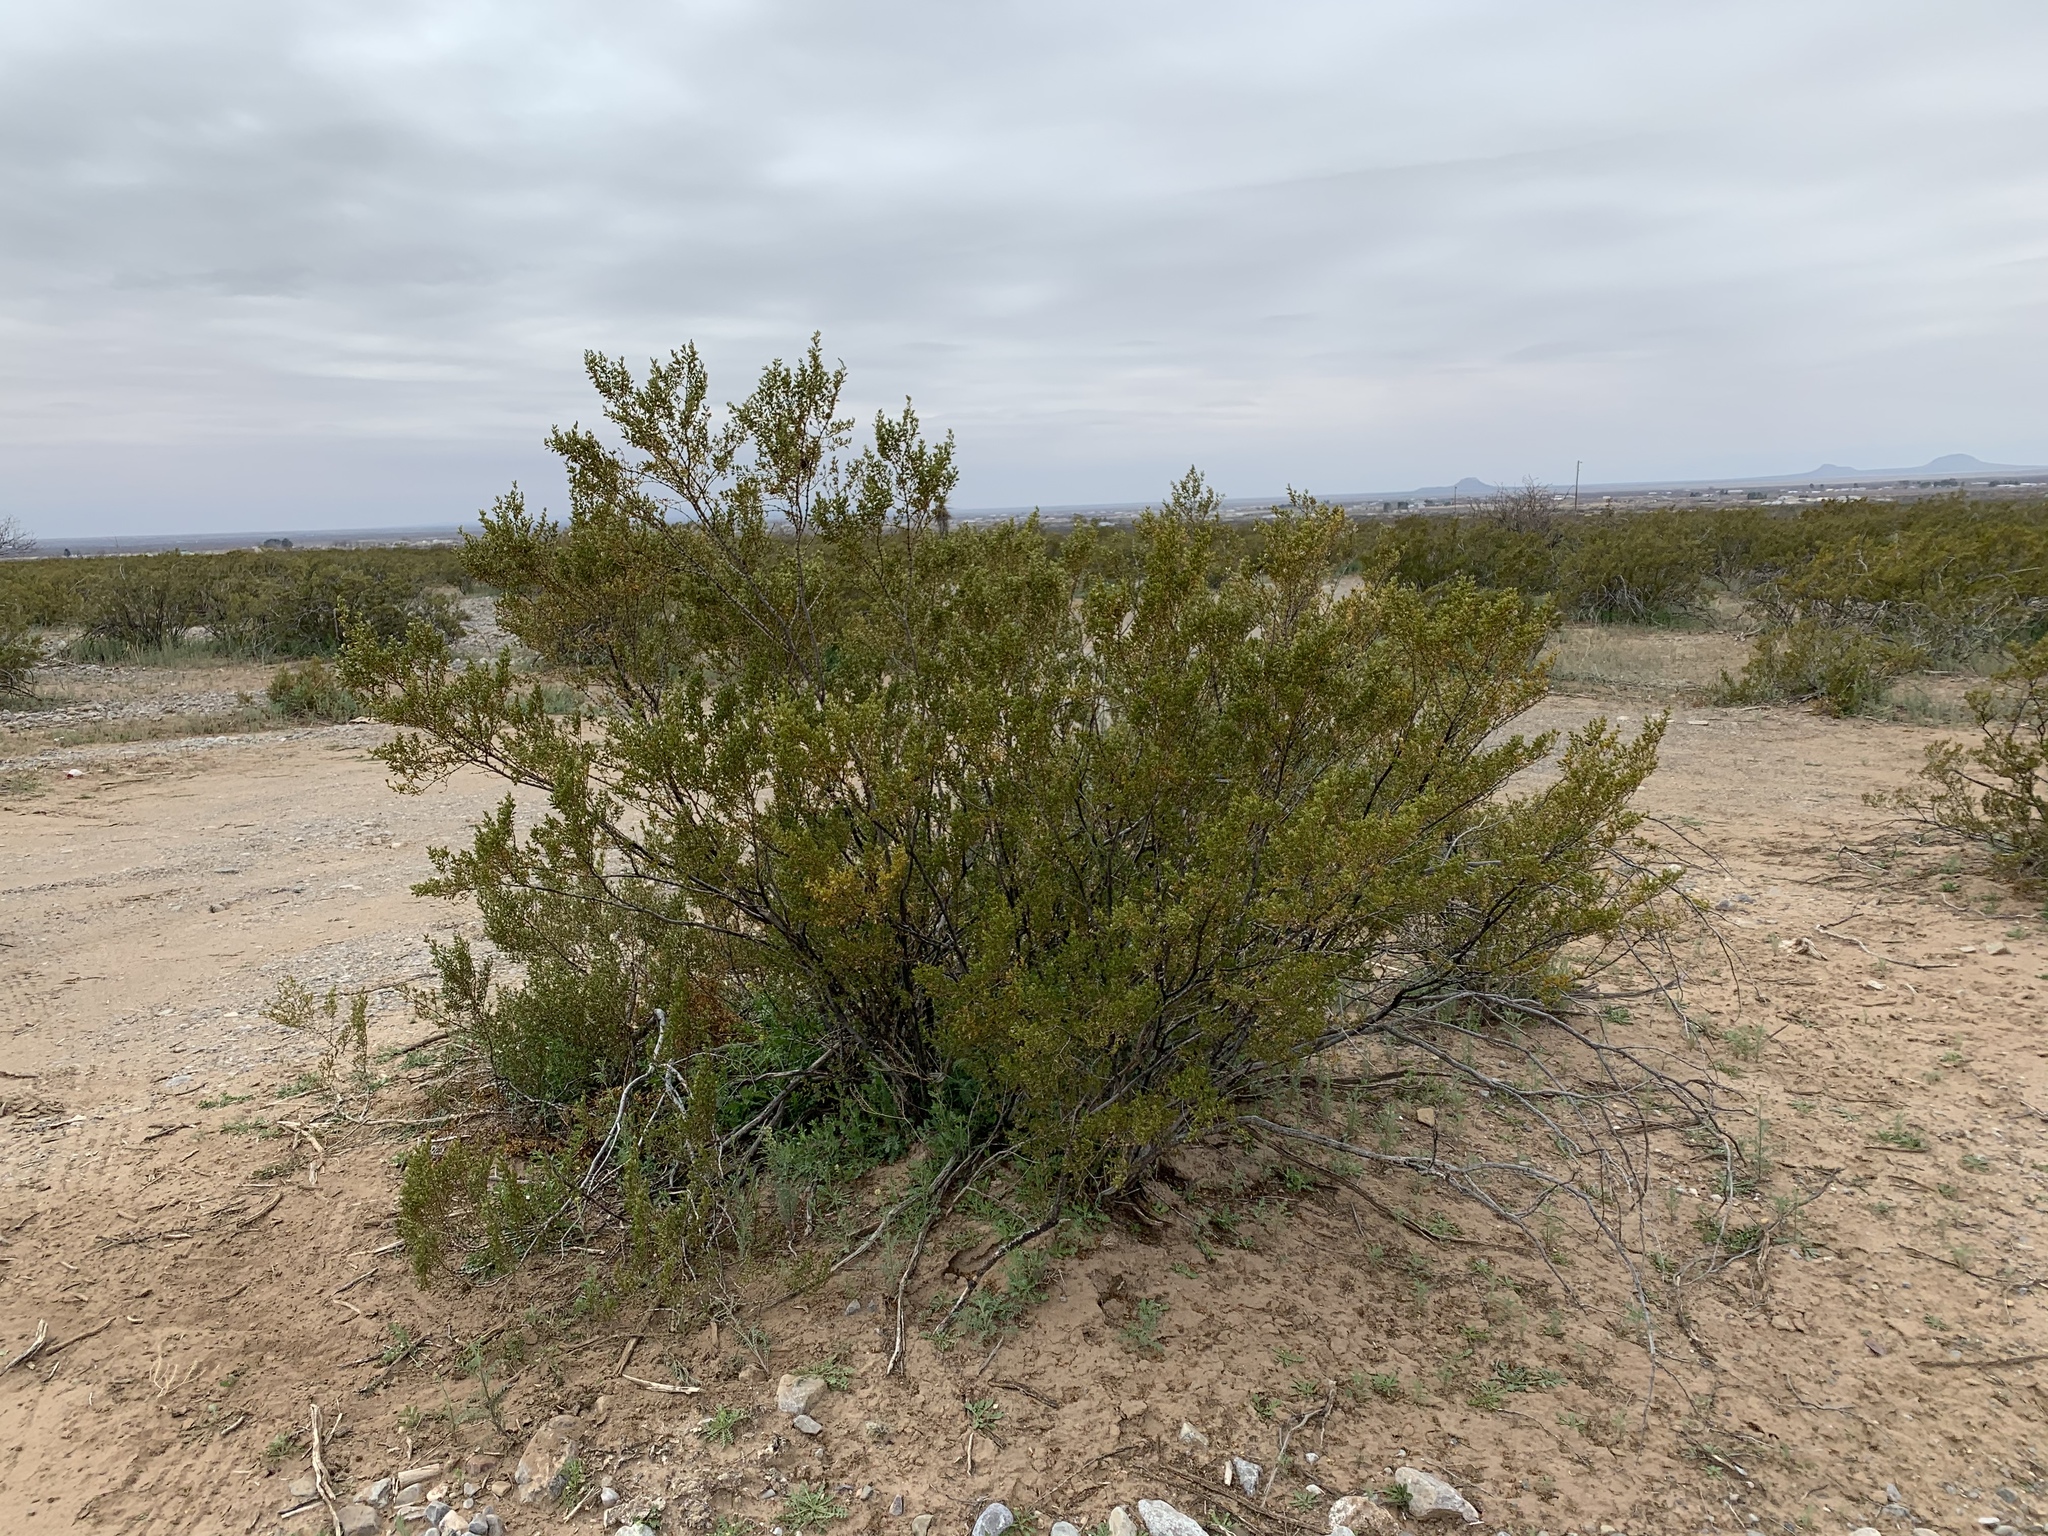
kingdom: Plantae
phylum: Tracheophyta
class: Magnoliopsida
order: Zygophyllales
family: Zygophyllaceae
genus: Larrea
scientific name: Larrea tridentata
